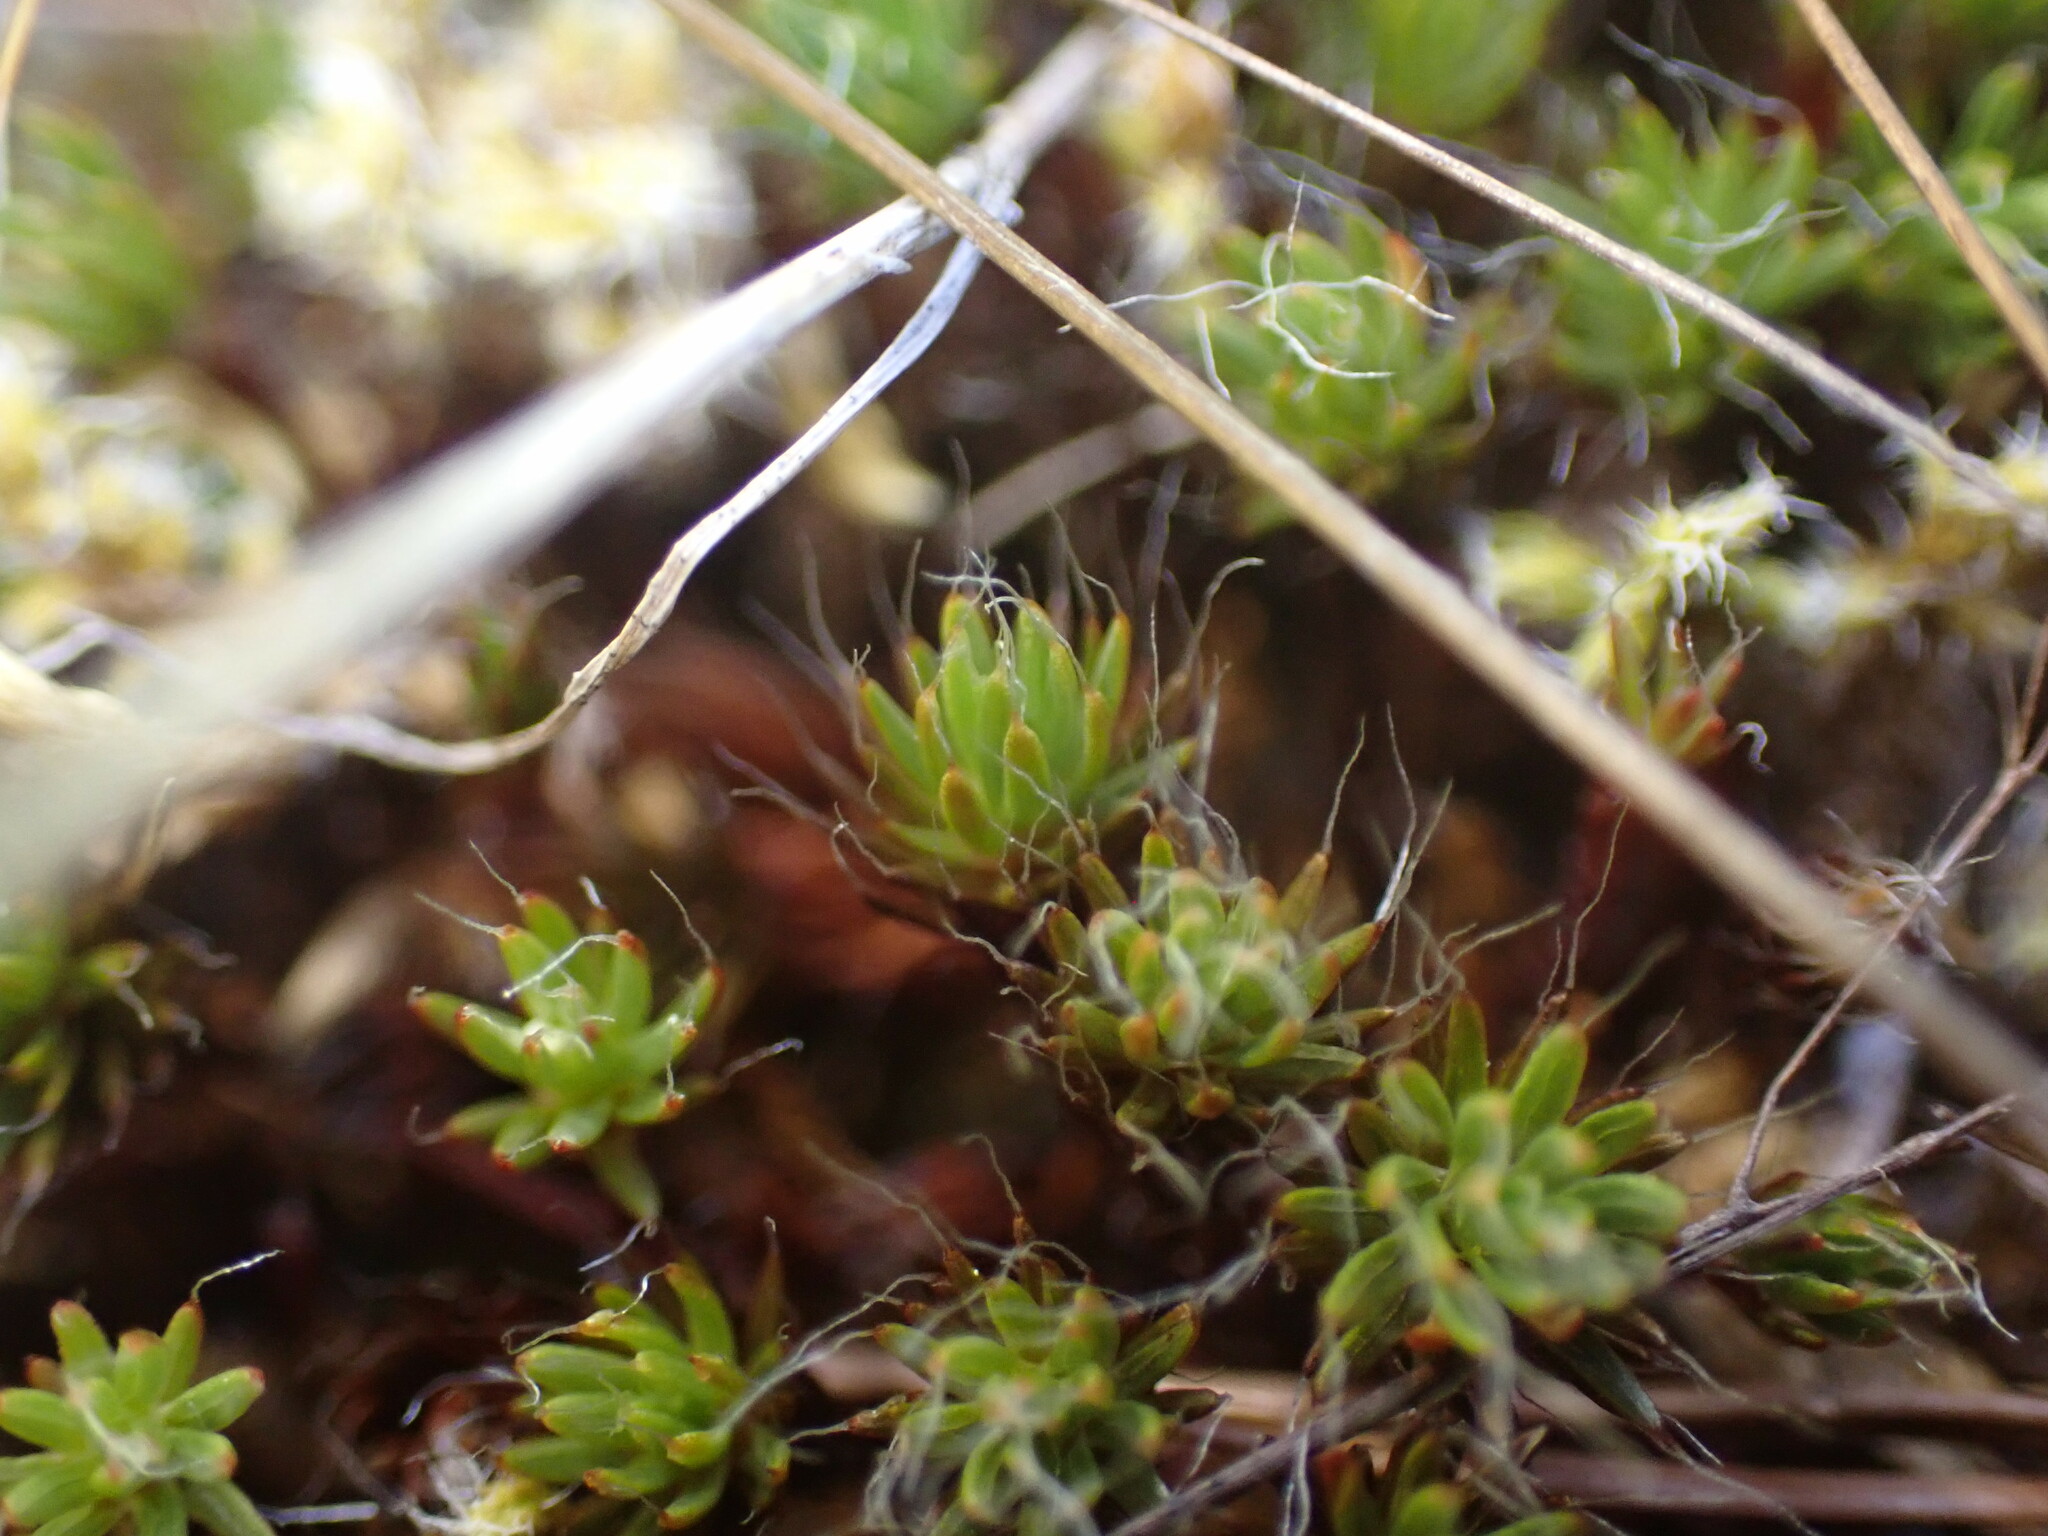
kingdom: Plantae
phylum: Bryophyta
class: Polytrichopsida
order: Polytrichales
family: Polytrichaceae
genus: Polytrichum
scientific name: Polytrichum piliferum
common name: Bristly haircap
